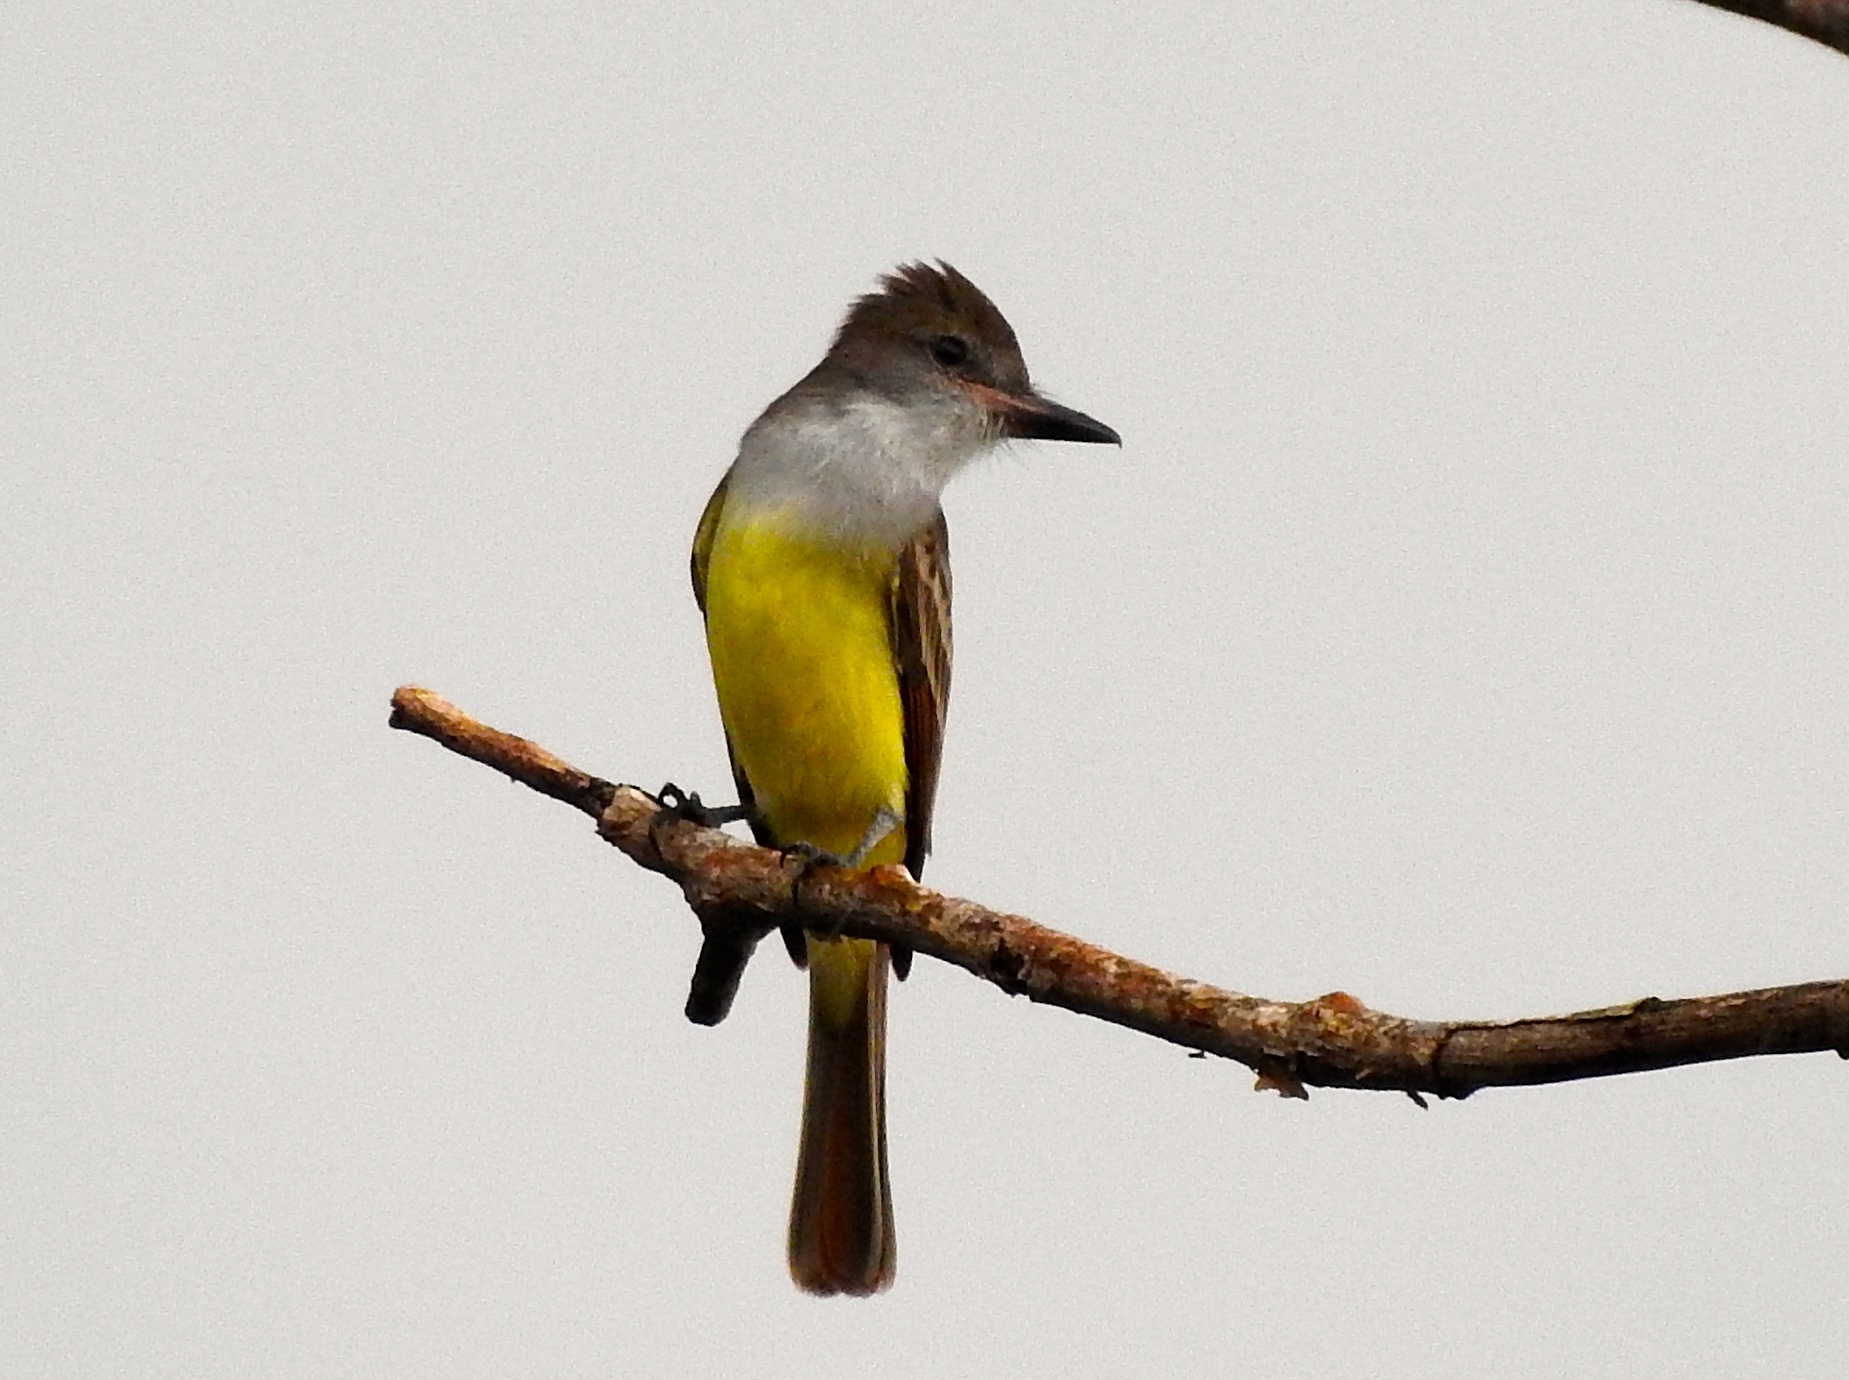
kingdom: Animalia
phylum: Chordata
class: Aves
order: Passeriformes
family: Tyrannidae
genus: Myiarchus
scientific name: Myiarchus tyrannulus
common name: Brown-crested flycatcher
